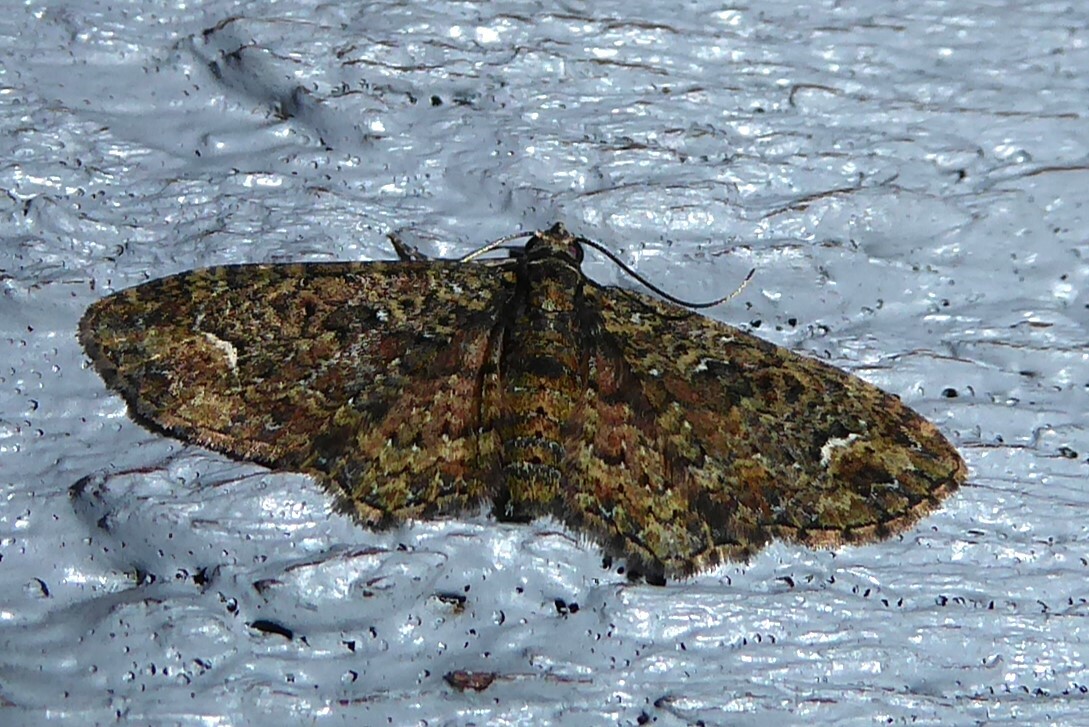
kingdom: Animalia
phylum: Arthropoda
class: Insecta
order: Lepidoptera
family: Geometridae
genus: Pasiphilodes
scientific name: Pasiphilodes testulata
